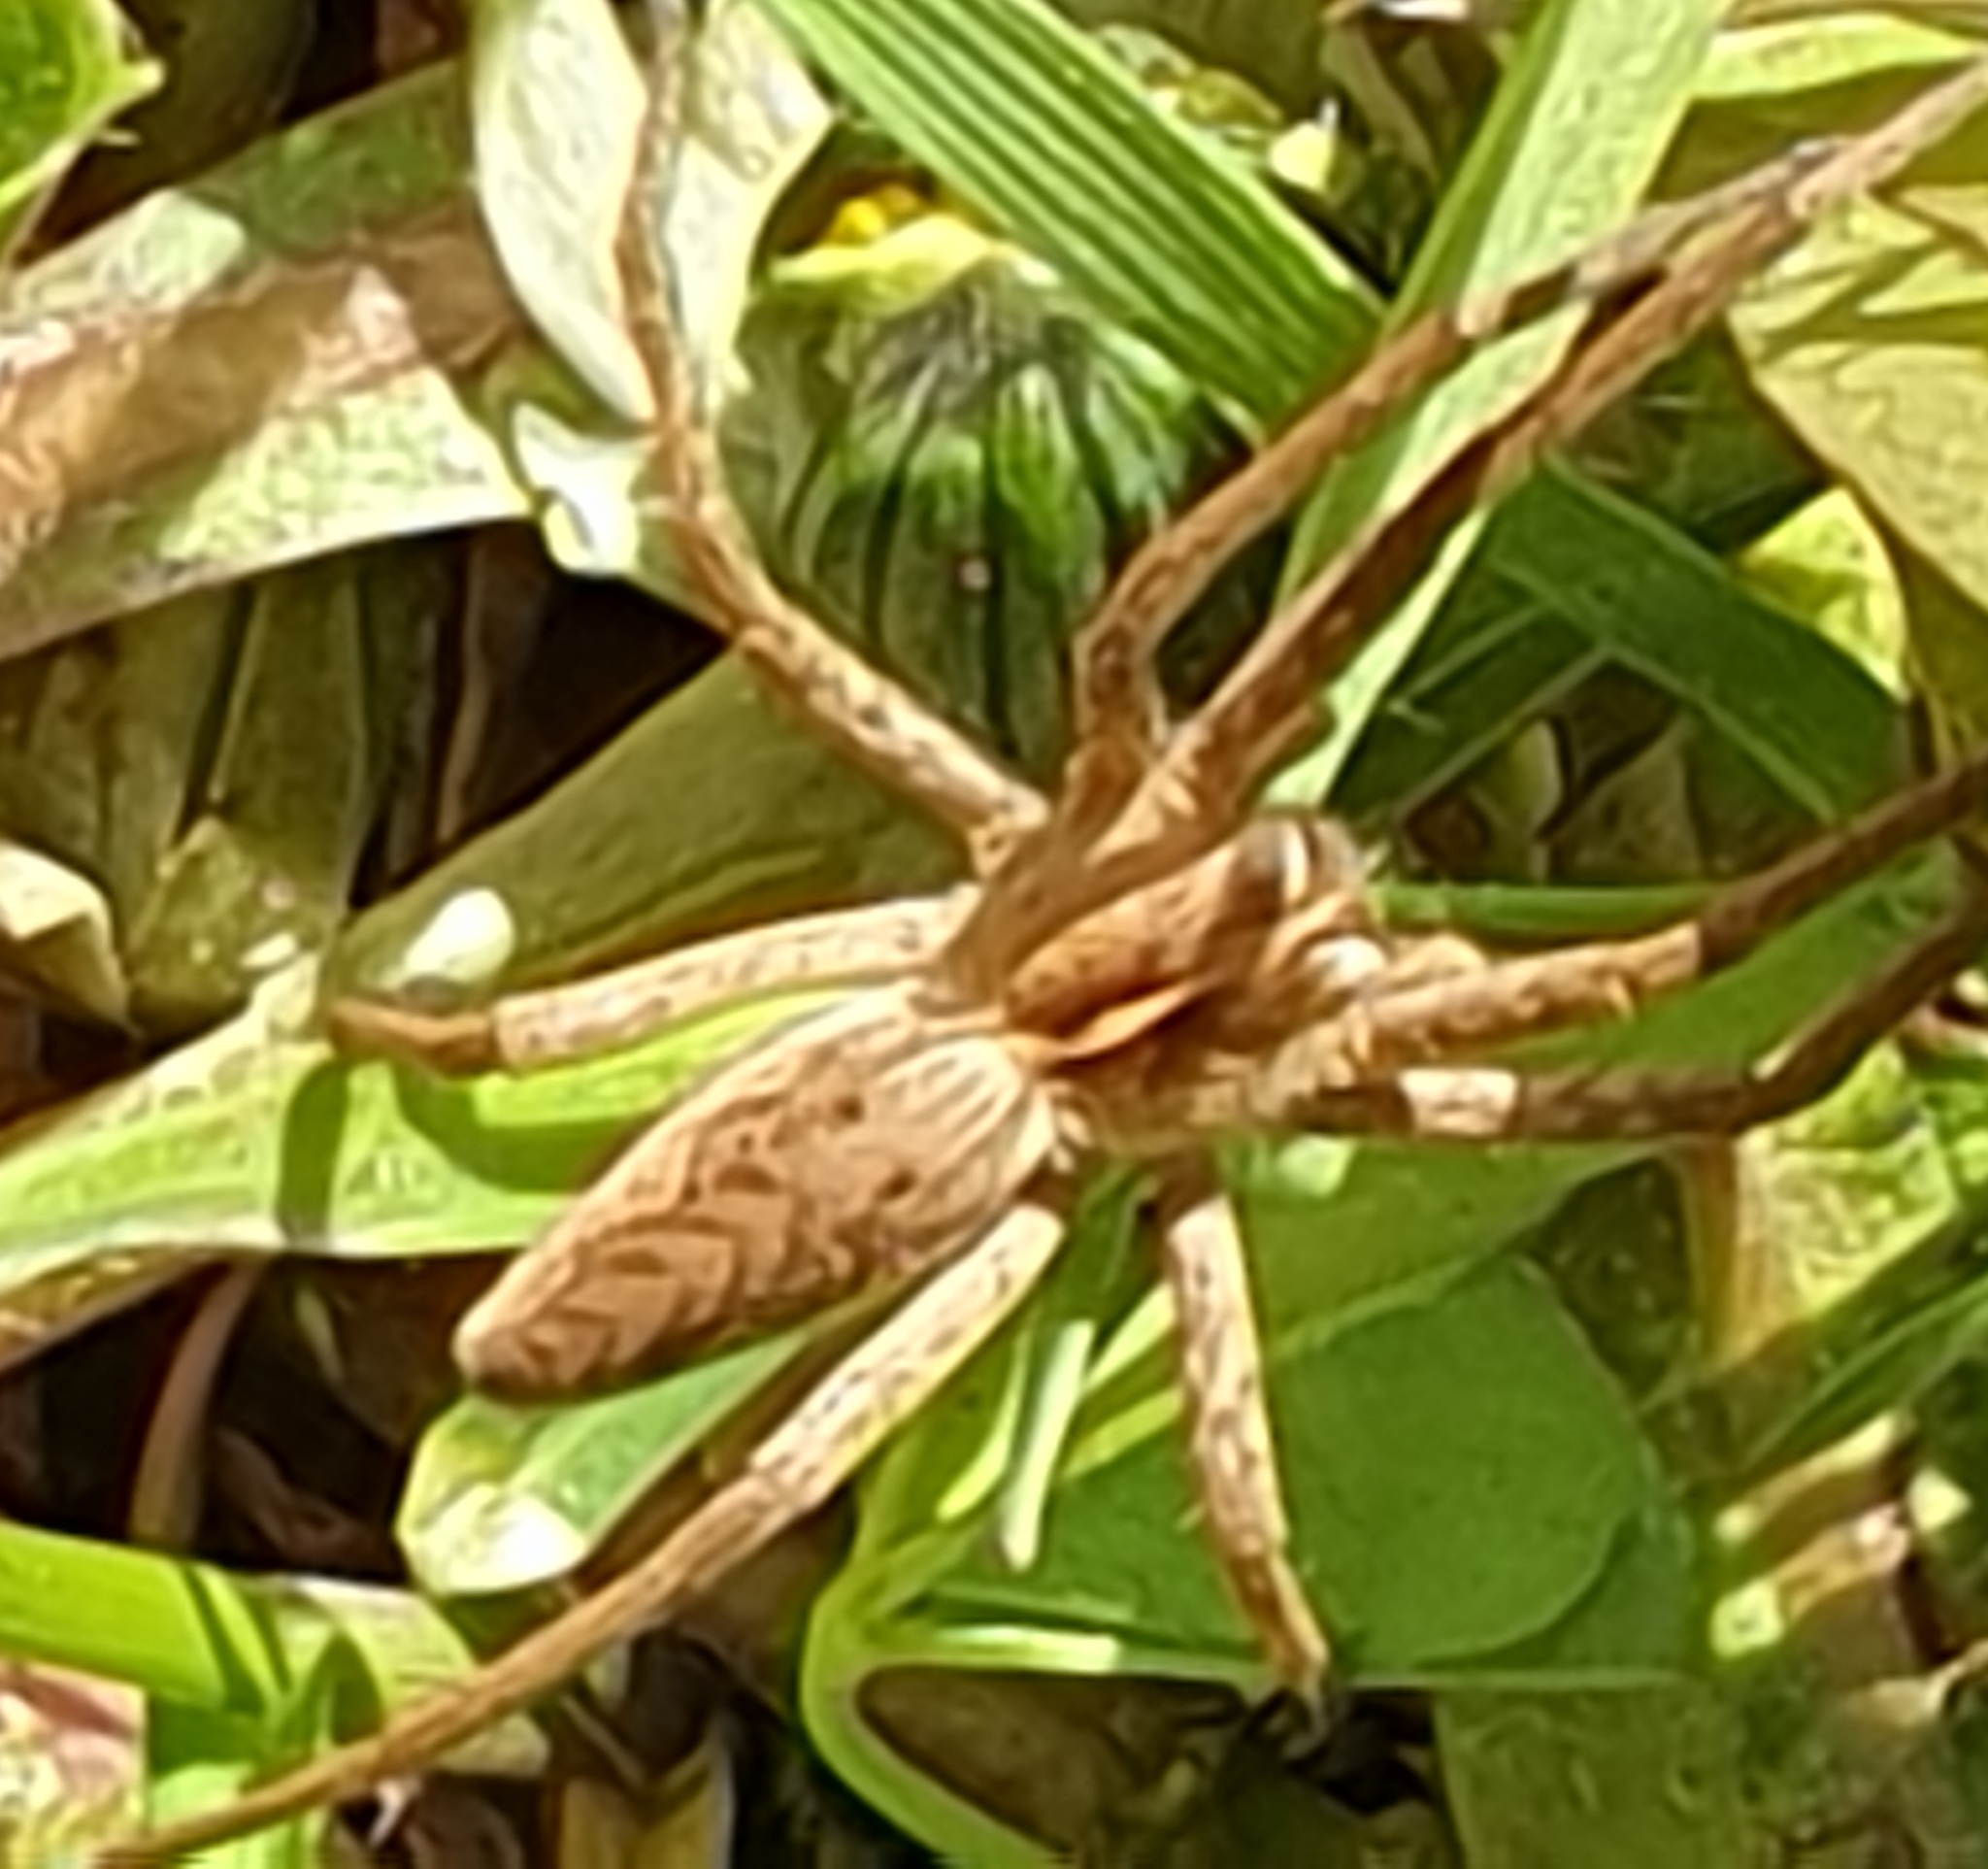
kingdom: Animalia
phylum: Arthropoda
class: Arachnida
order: Araneae
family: Pisauridae
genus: Pisaura
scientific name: Pisaura mirabilis
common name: Tent spider
